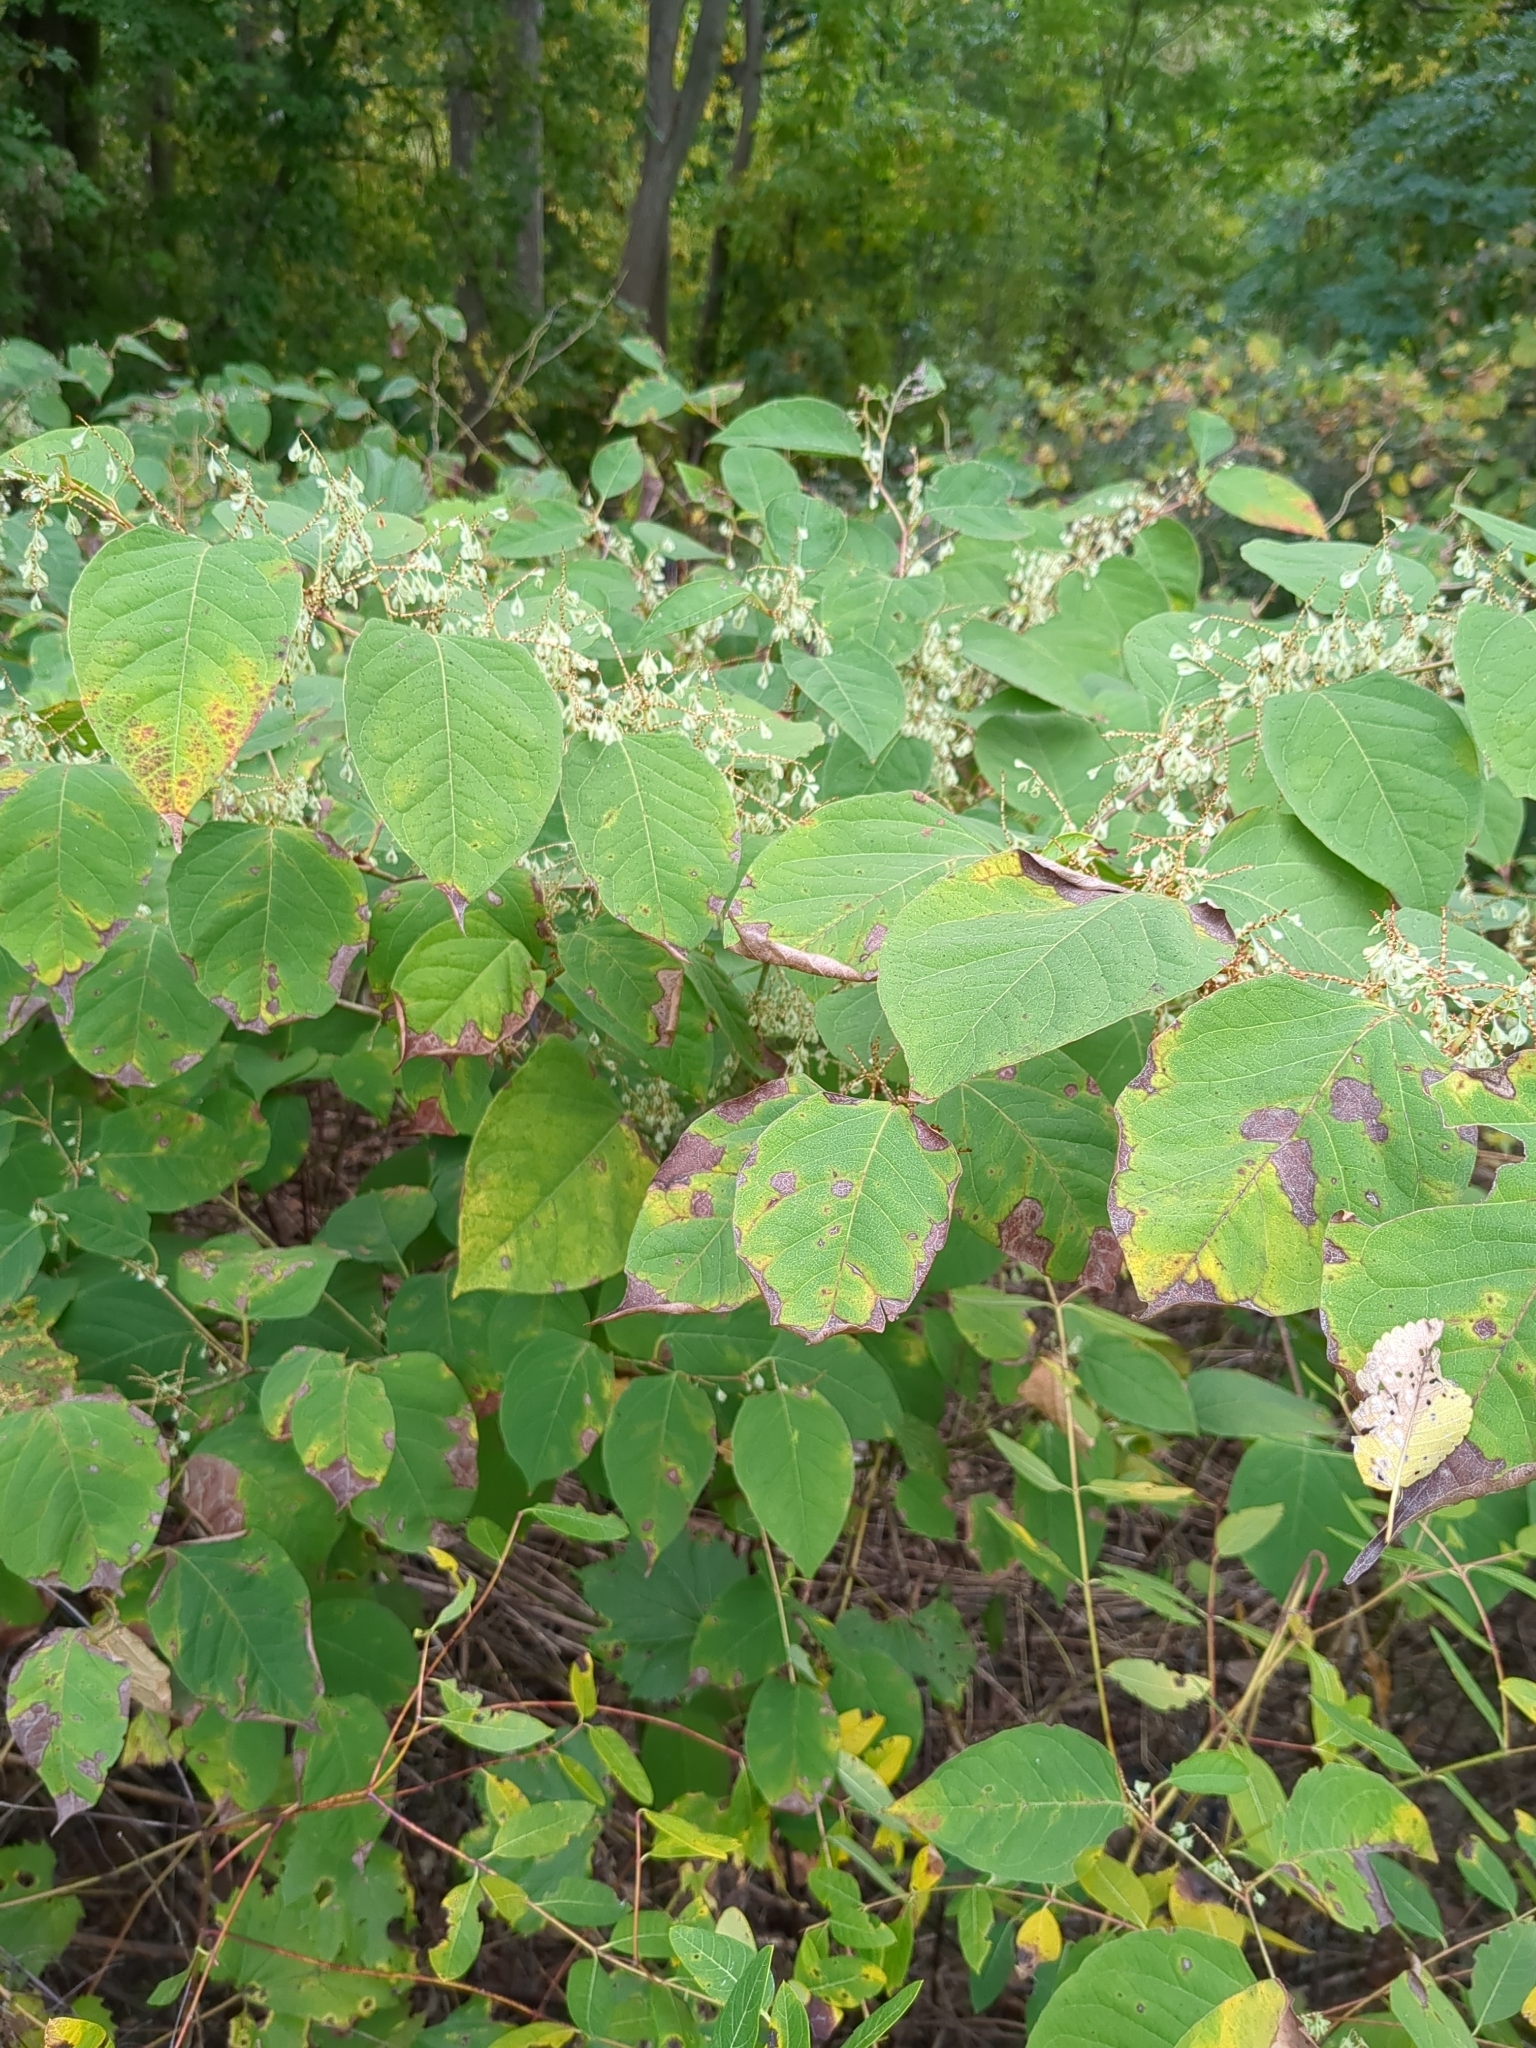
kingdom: Plantae
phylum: Tracheophyta
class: Magnoliopsida
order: Caryophyllales
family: Polygonaceae
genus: Reynoutria
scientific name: Reynoutria japonica
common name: Japanese knotweed
